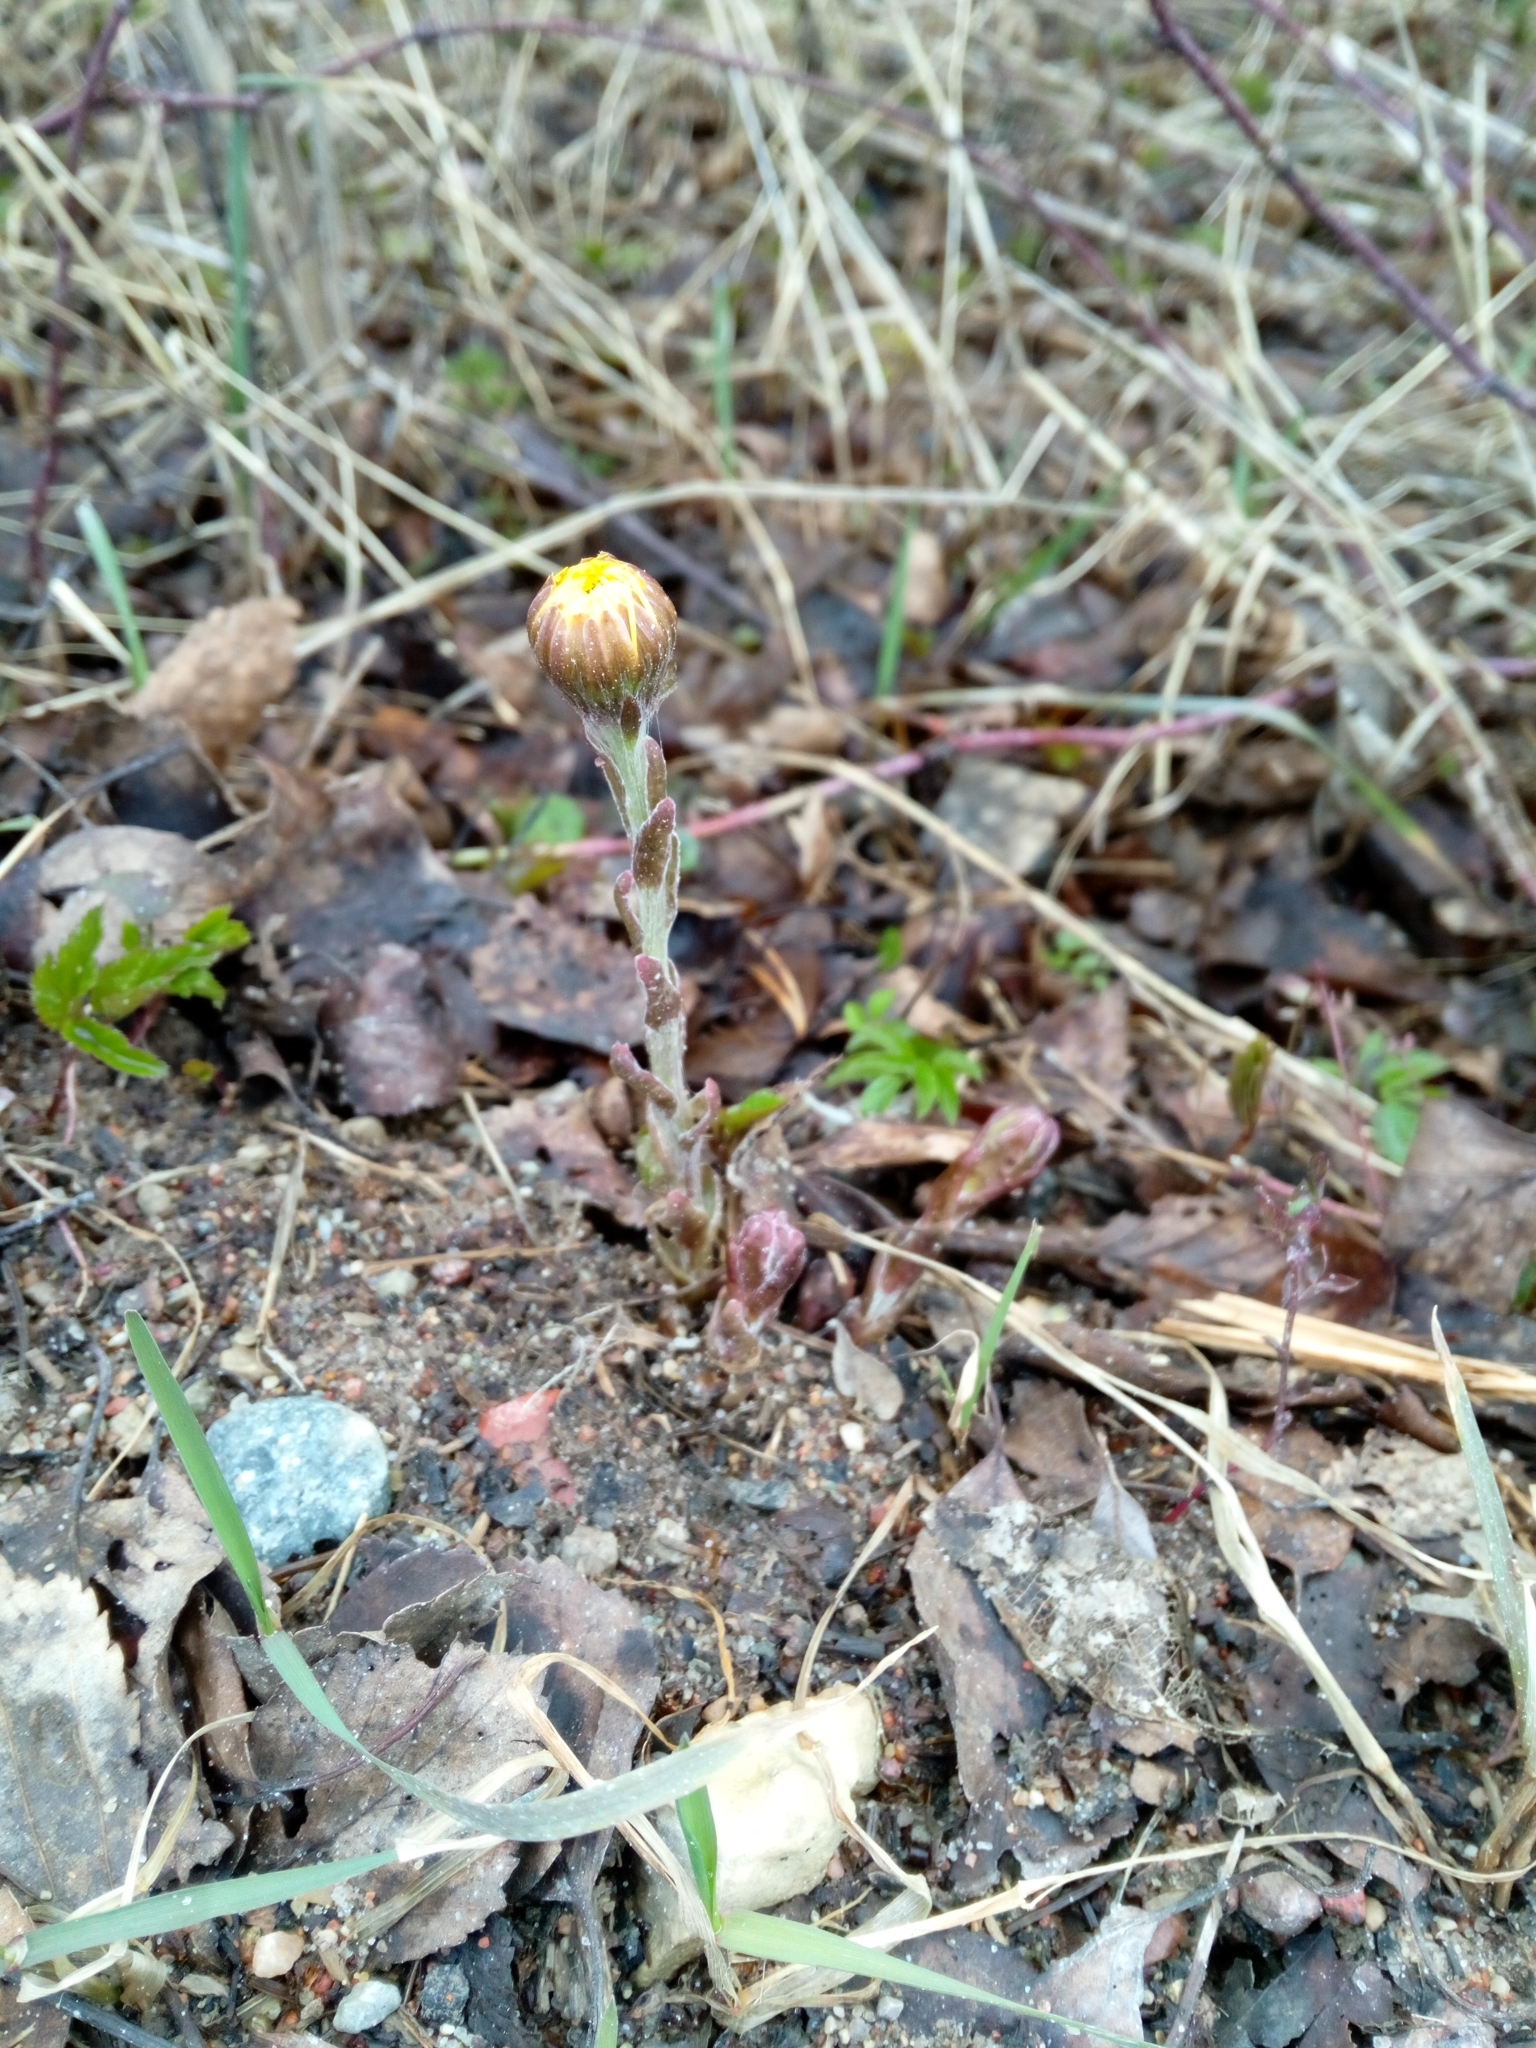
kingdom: Plantae
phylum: Tracheophyta
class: Magnoliopsida
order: Asterales
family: Asteraceae
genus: Tussilago
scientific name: Tussilago farfara
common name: Coltsfoot
